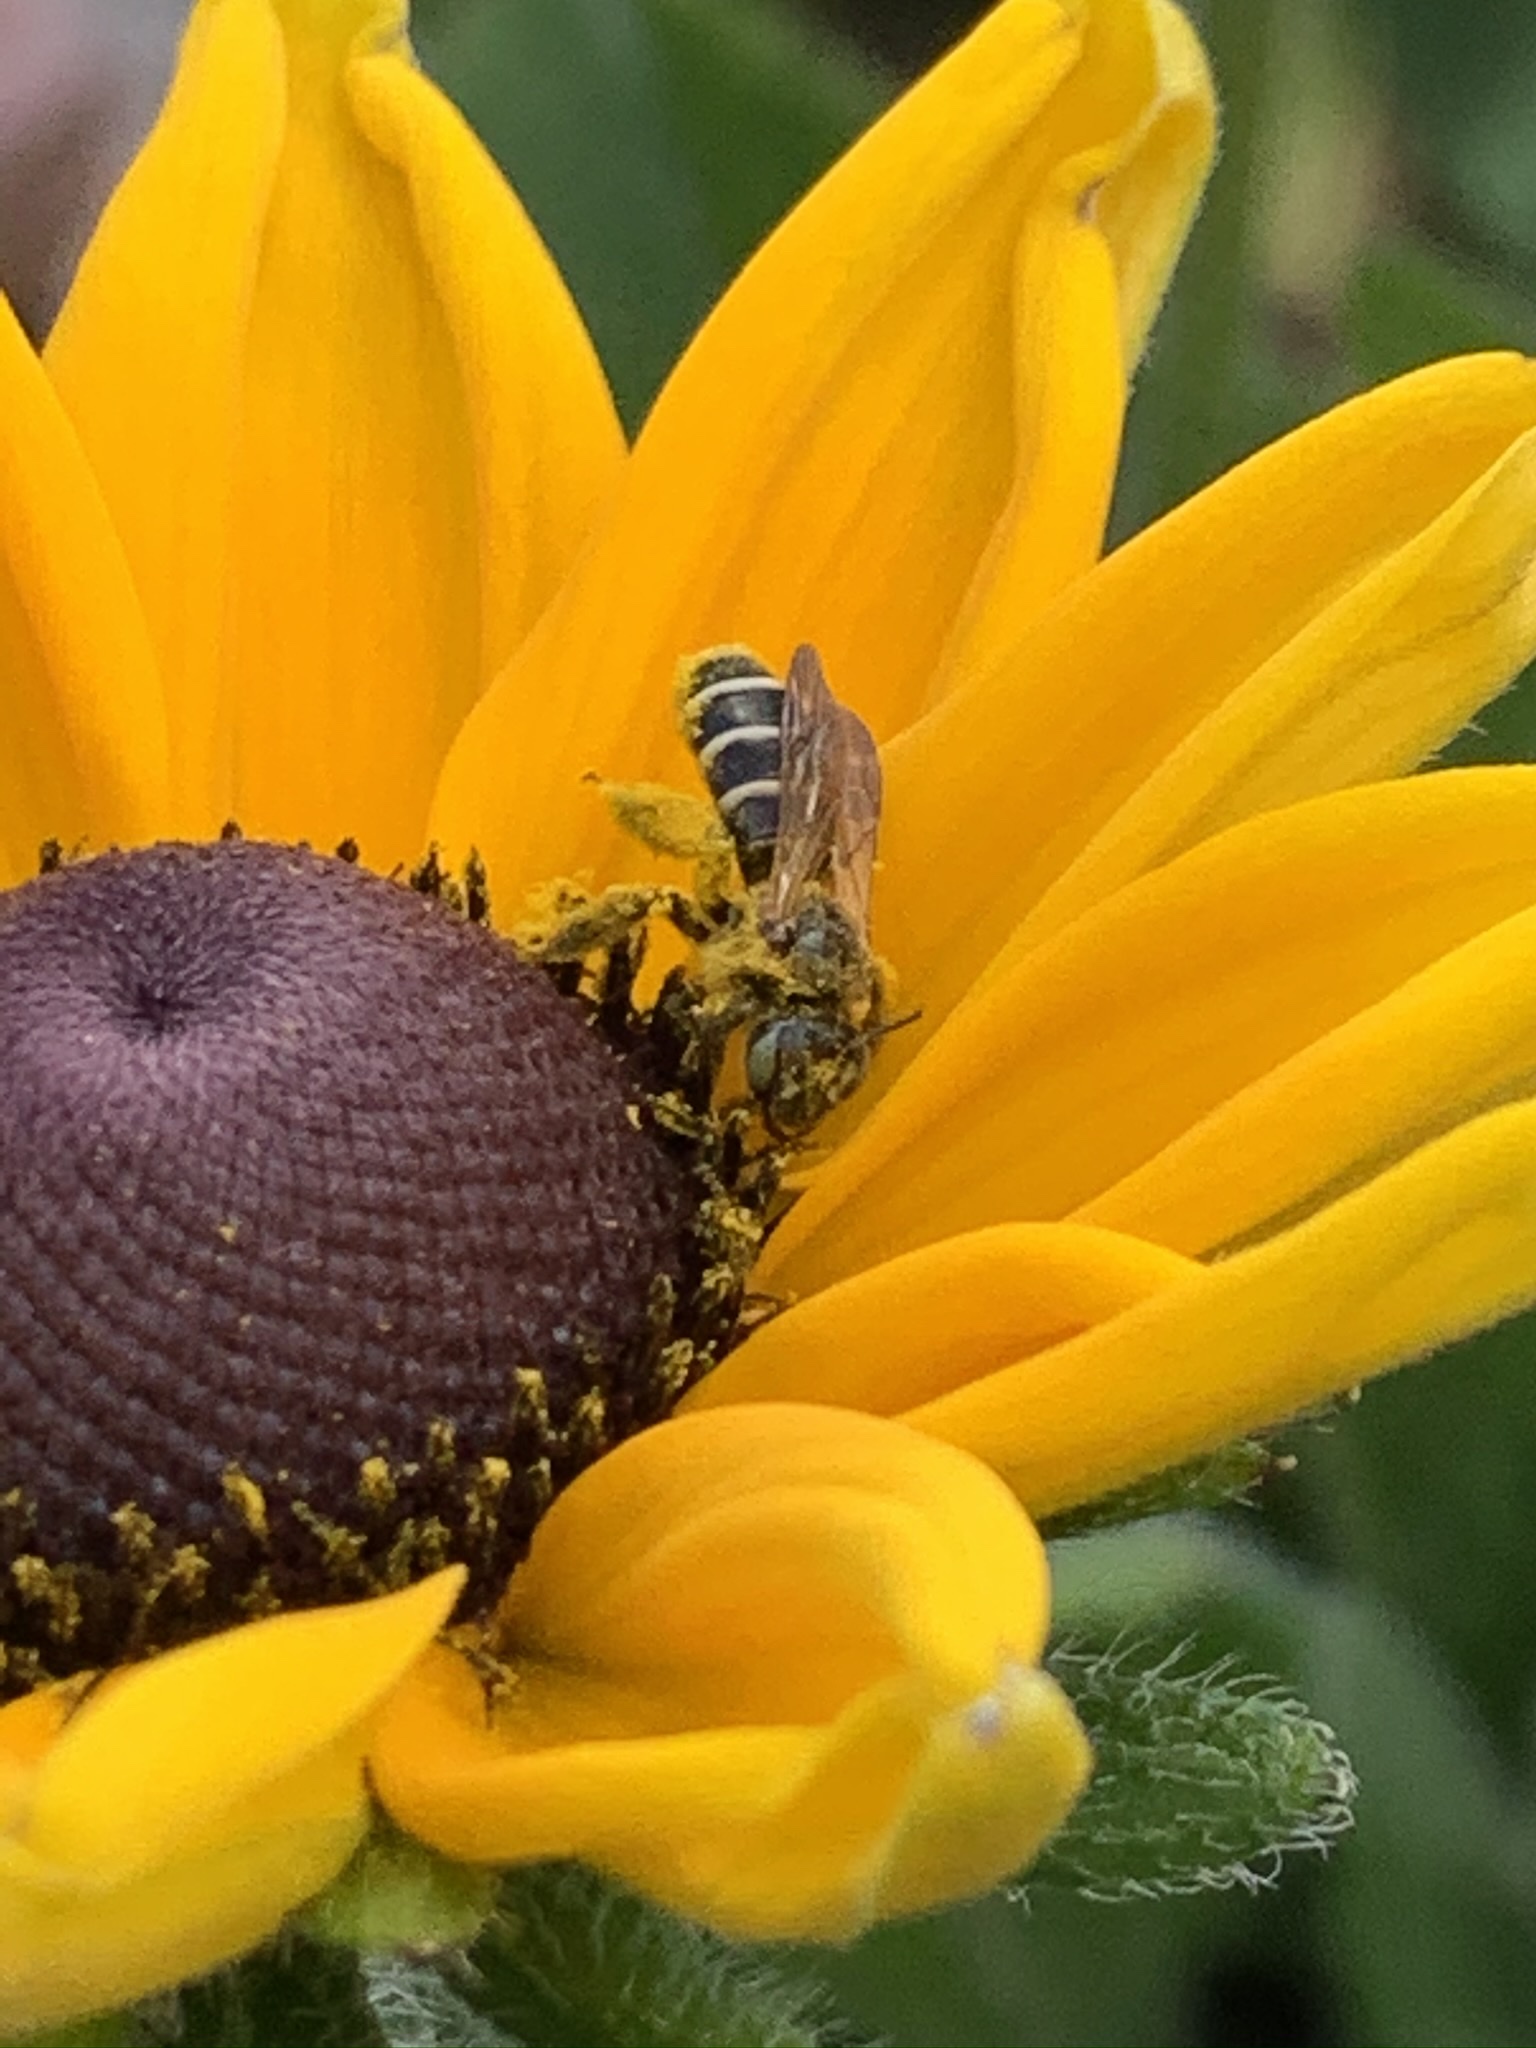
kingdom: Animalia
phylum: Arthropoda
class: Insecta
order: Hymenoptera
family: Melittidae
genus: Hesperapis
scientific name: Hesperapis
